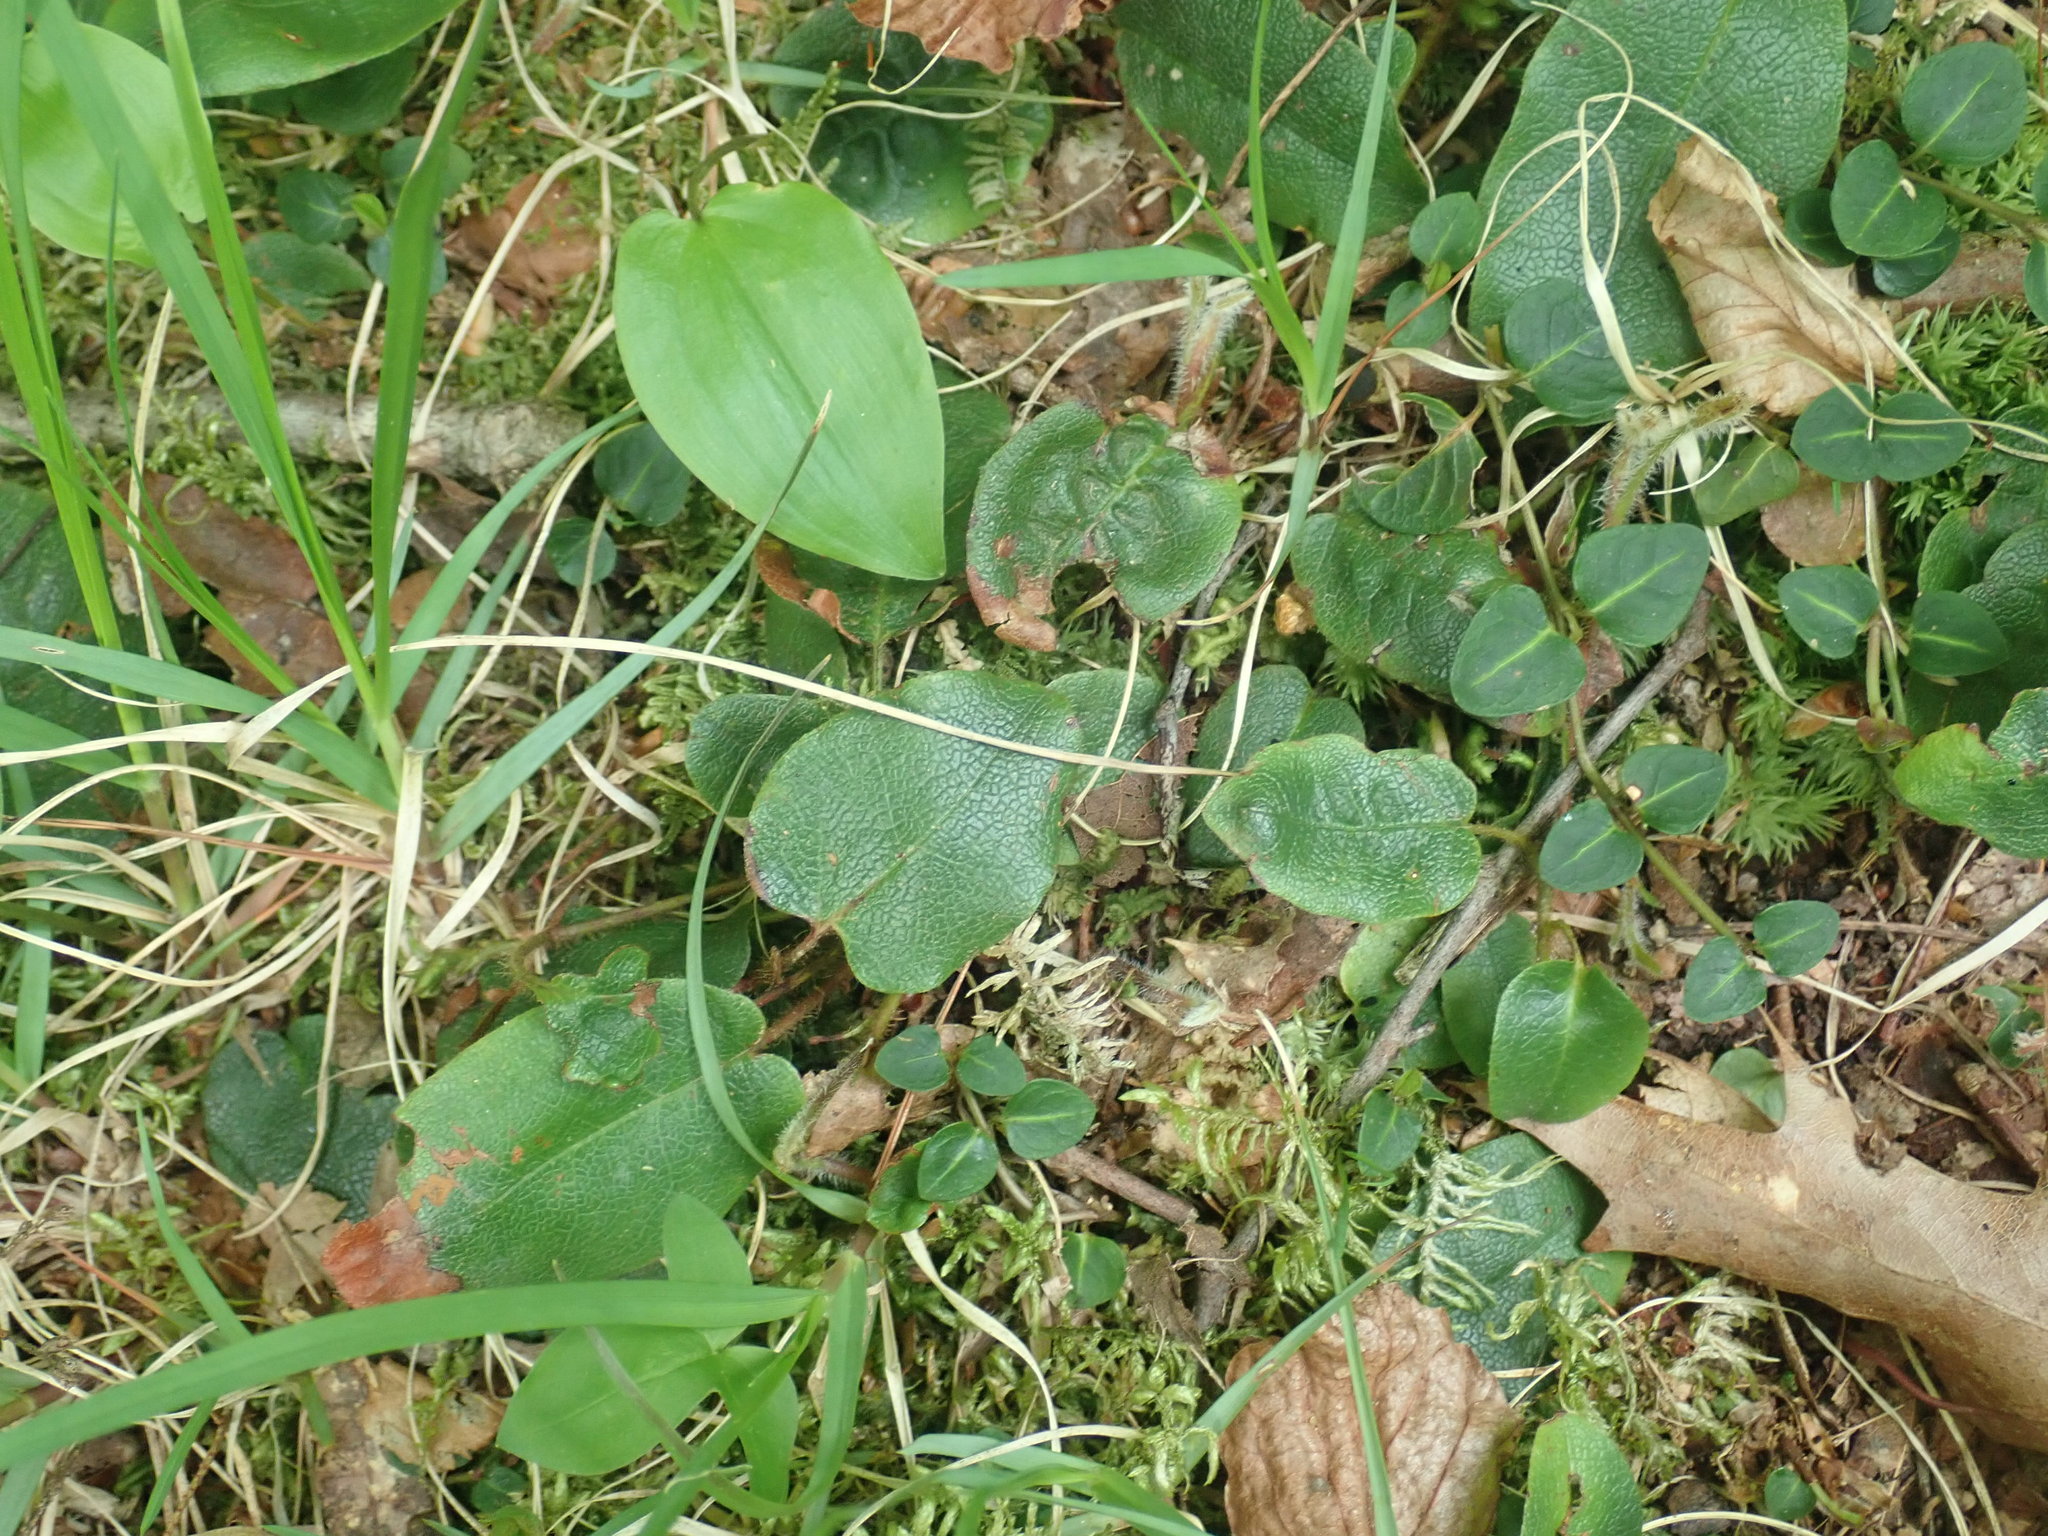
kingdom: Plantae
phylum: Tracheophyta
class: Magnoliopsida
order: Ericales
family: Ericaceae
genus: Epigaea
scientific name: Epigaea repens
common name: Gravelroot
